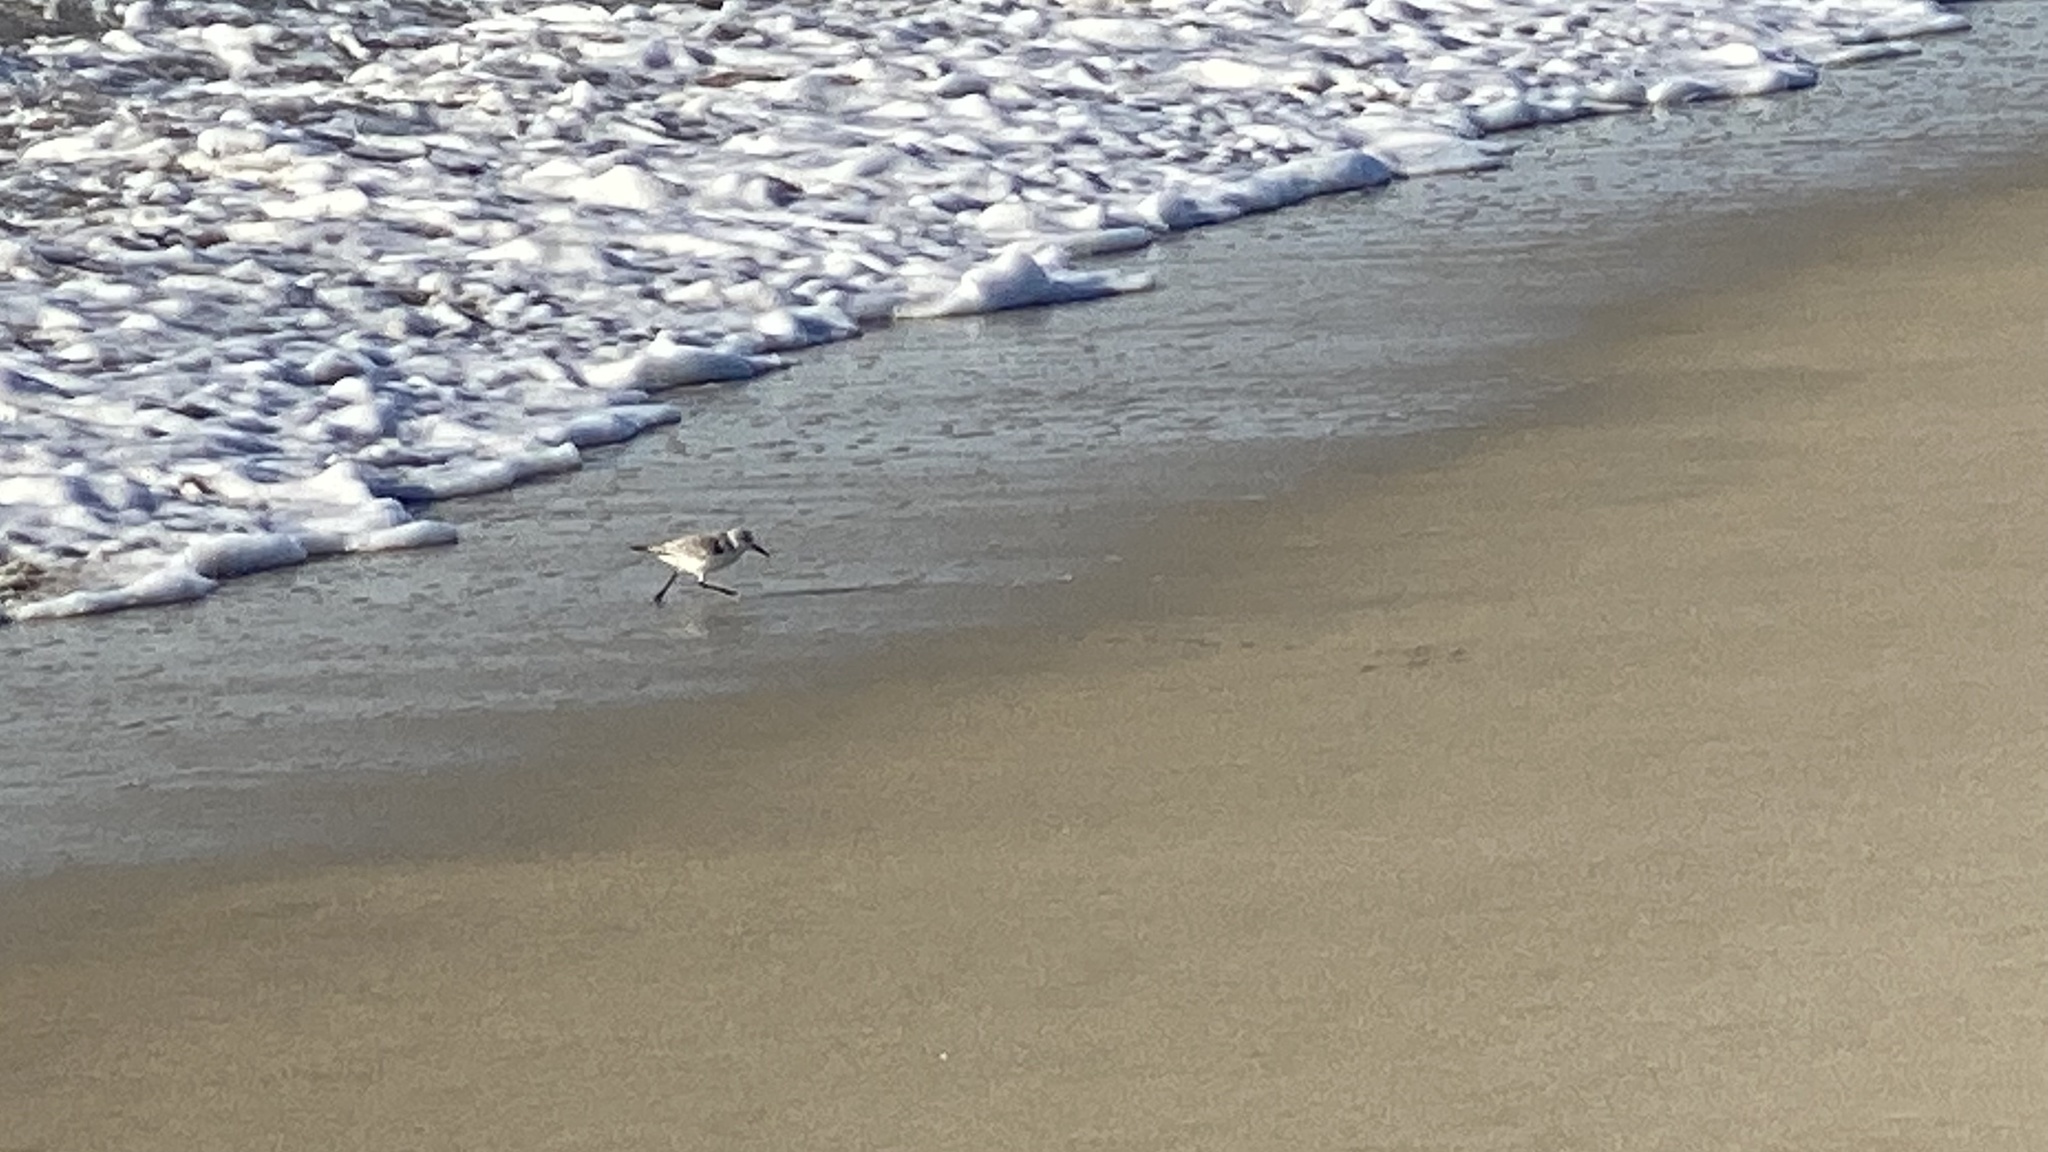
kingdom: Animalia
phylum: Chordata
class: Aves
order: Charadriiformes
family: Scolopacidae
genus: Calidris
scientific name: Calidris alba
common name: Sanderling
